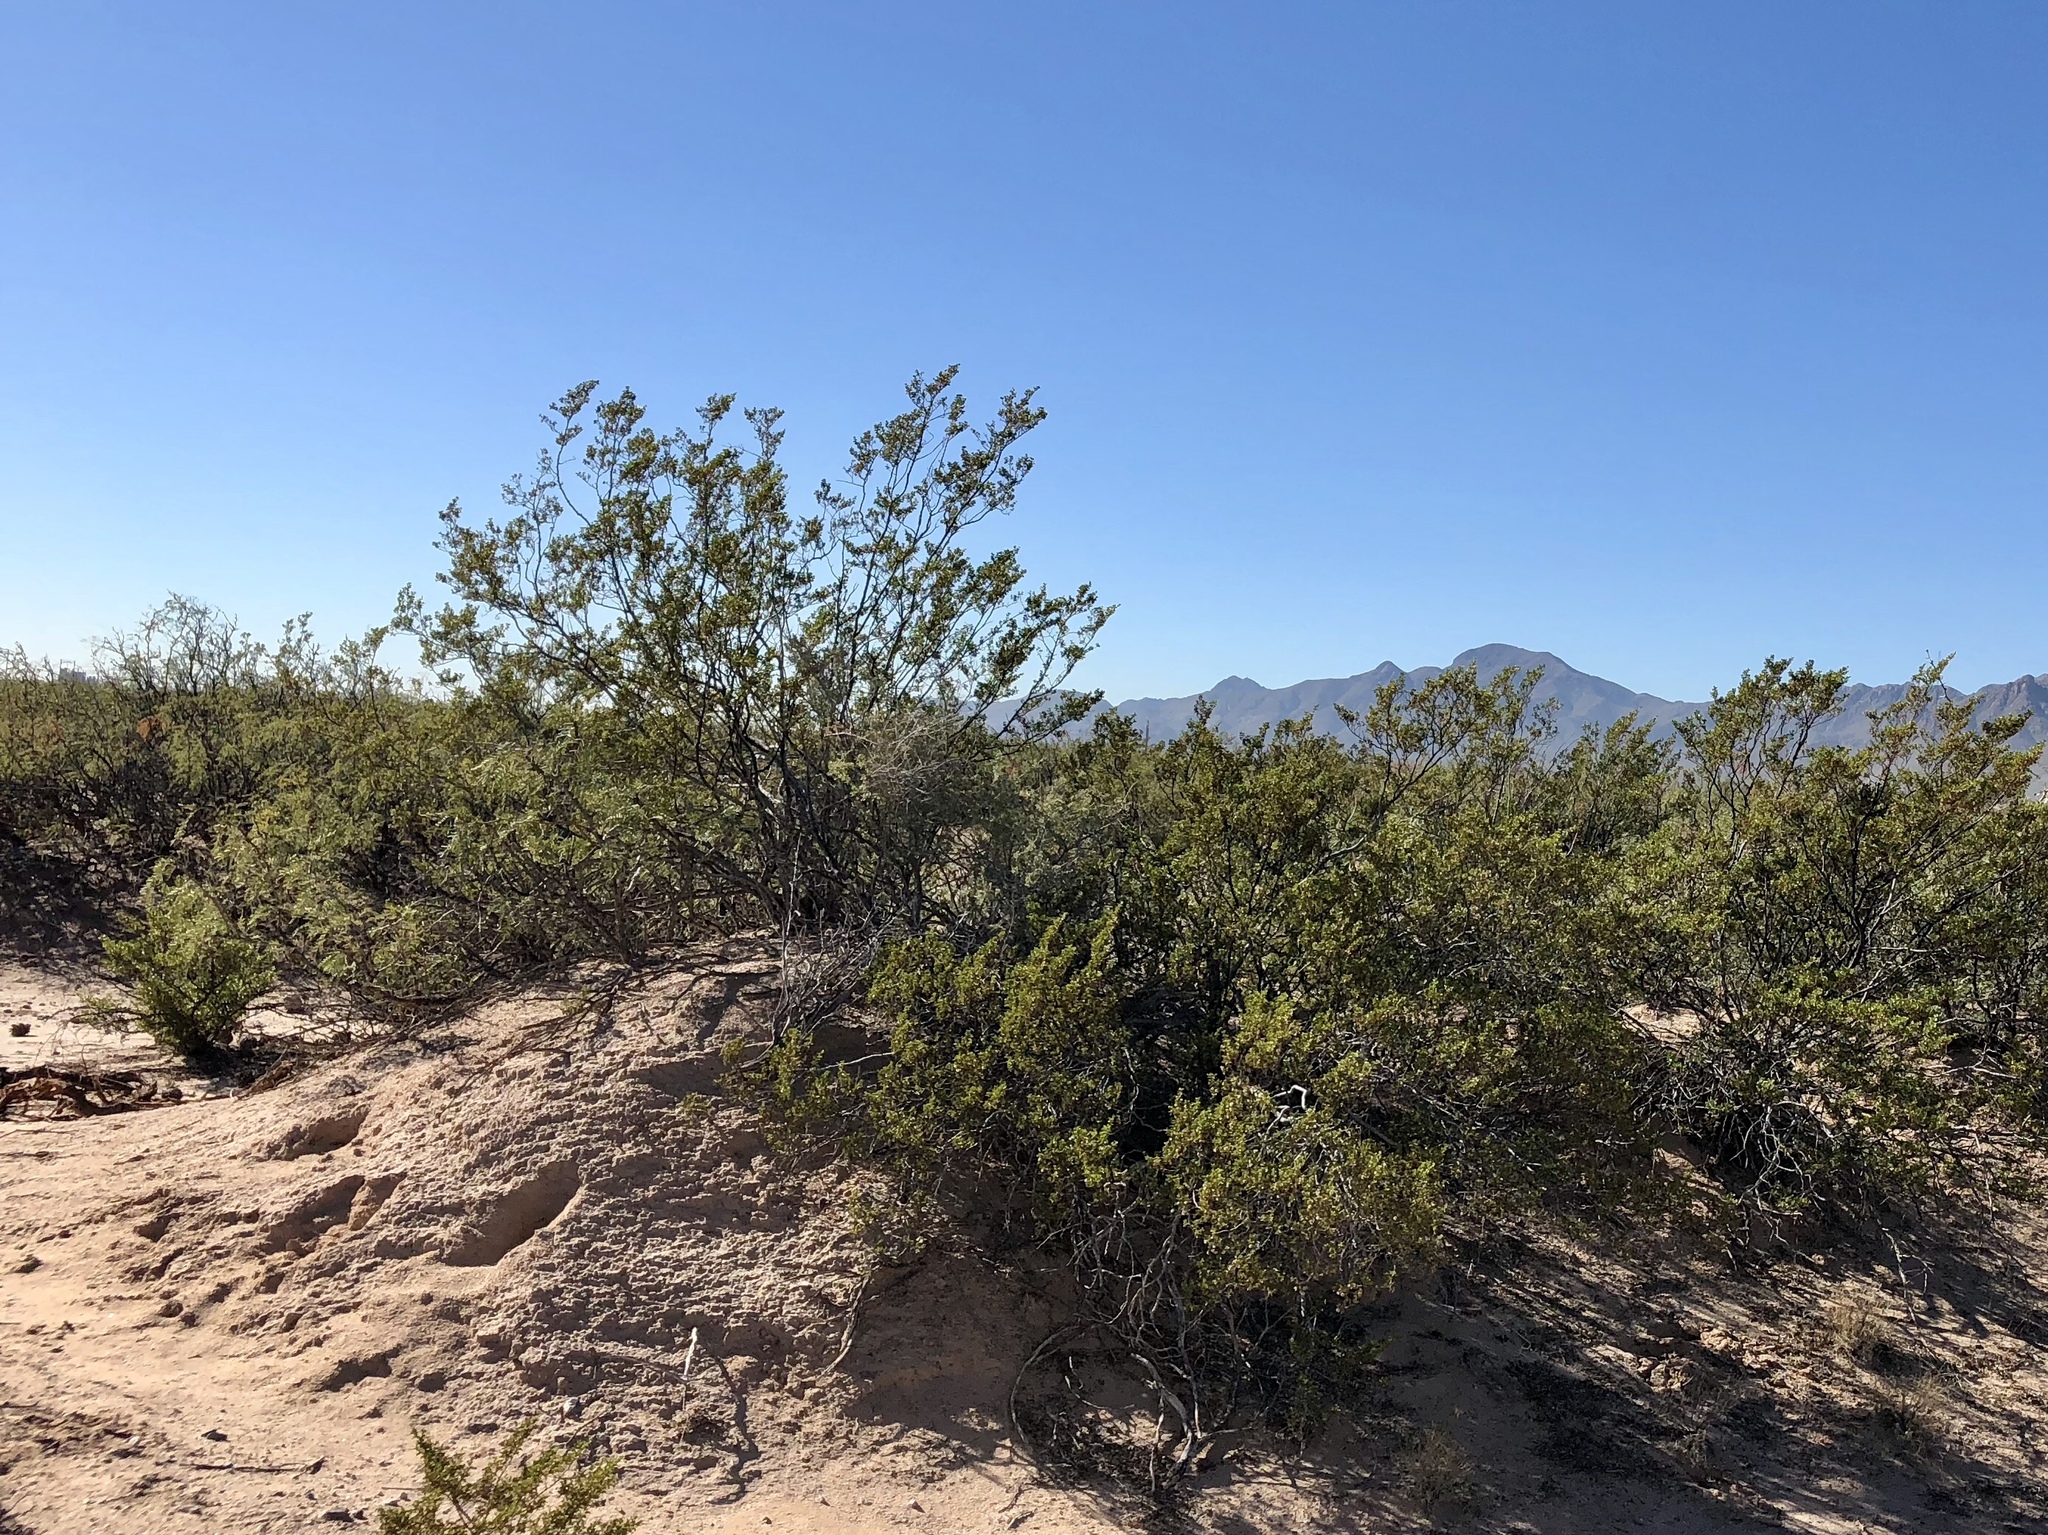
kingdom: Plantae
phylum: Tracheophyta
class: Magnoliopsida
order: Zygophyllales
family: Zygophyllaceae
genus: Larrea
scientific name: Larrea tridentata
